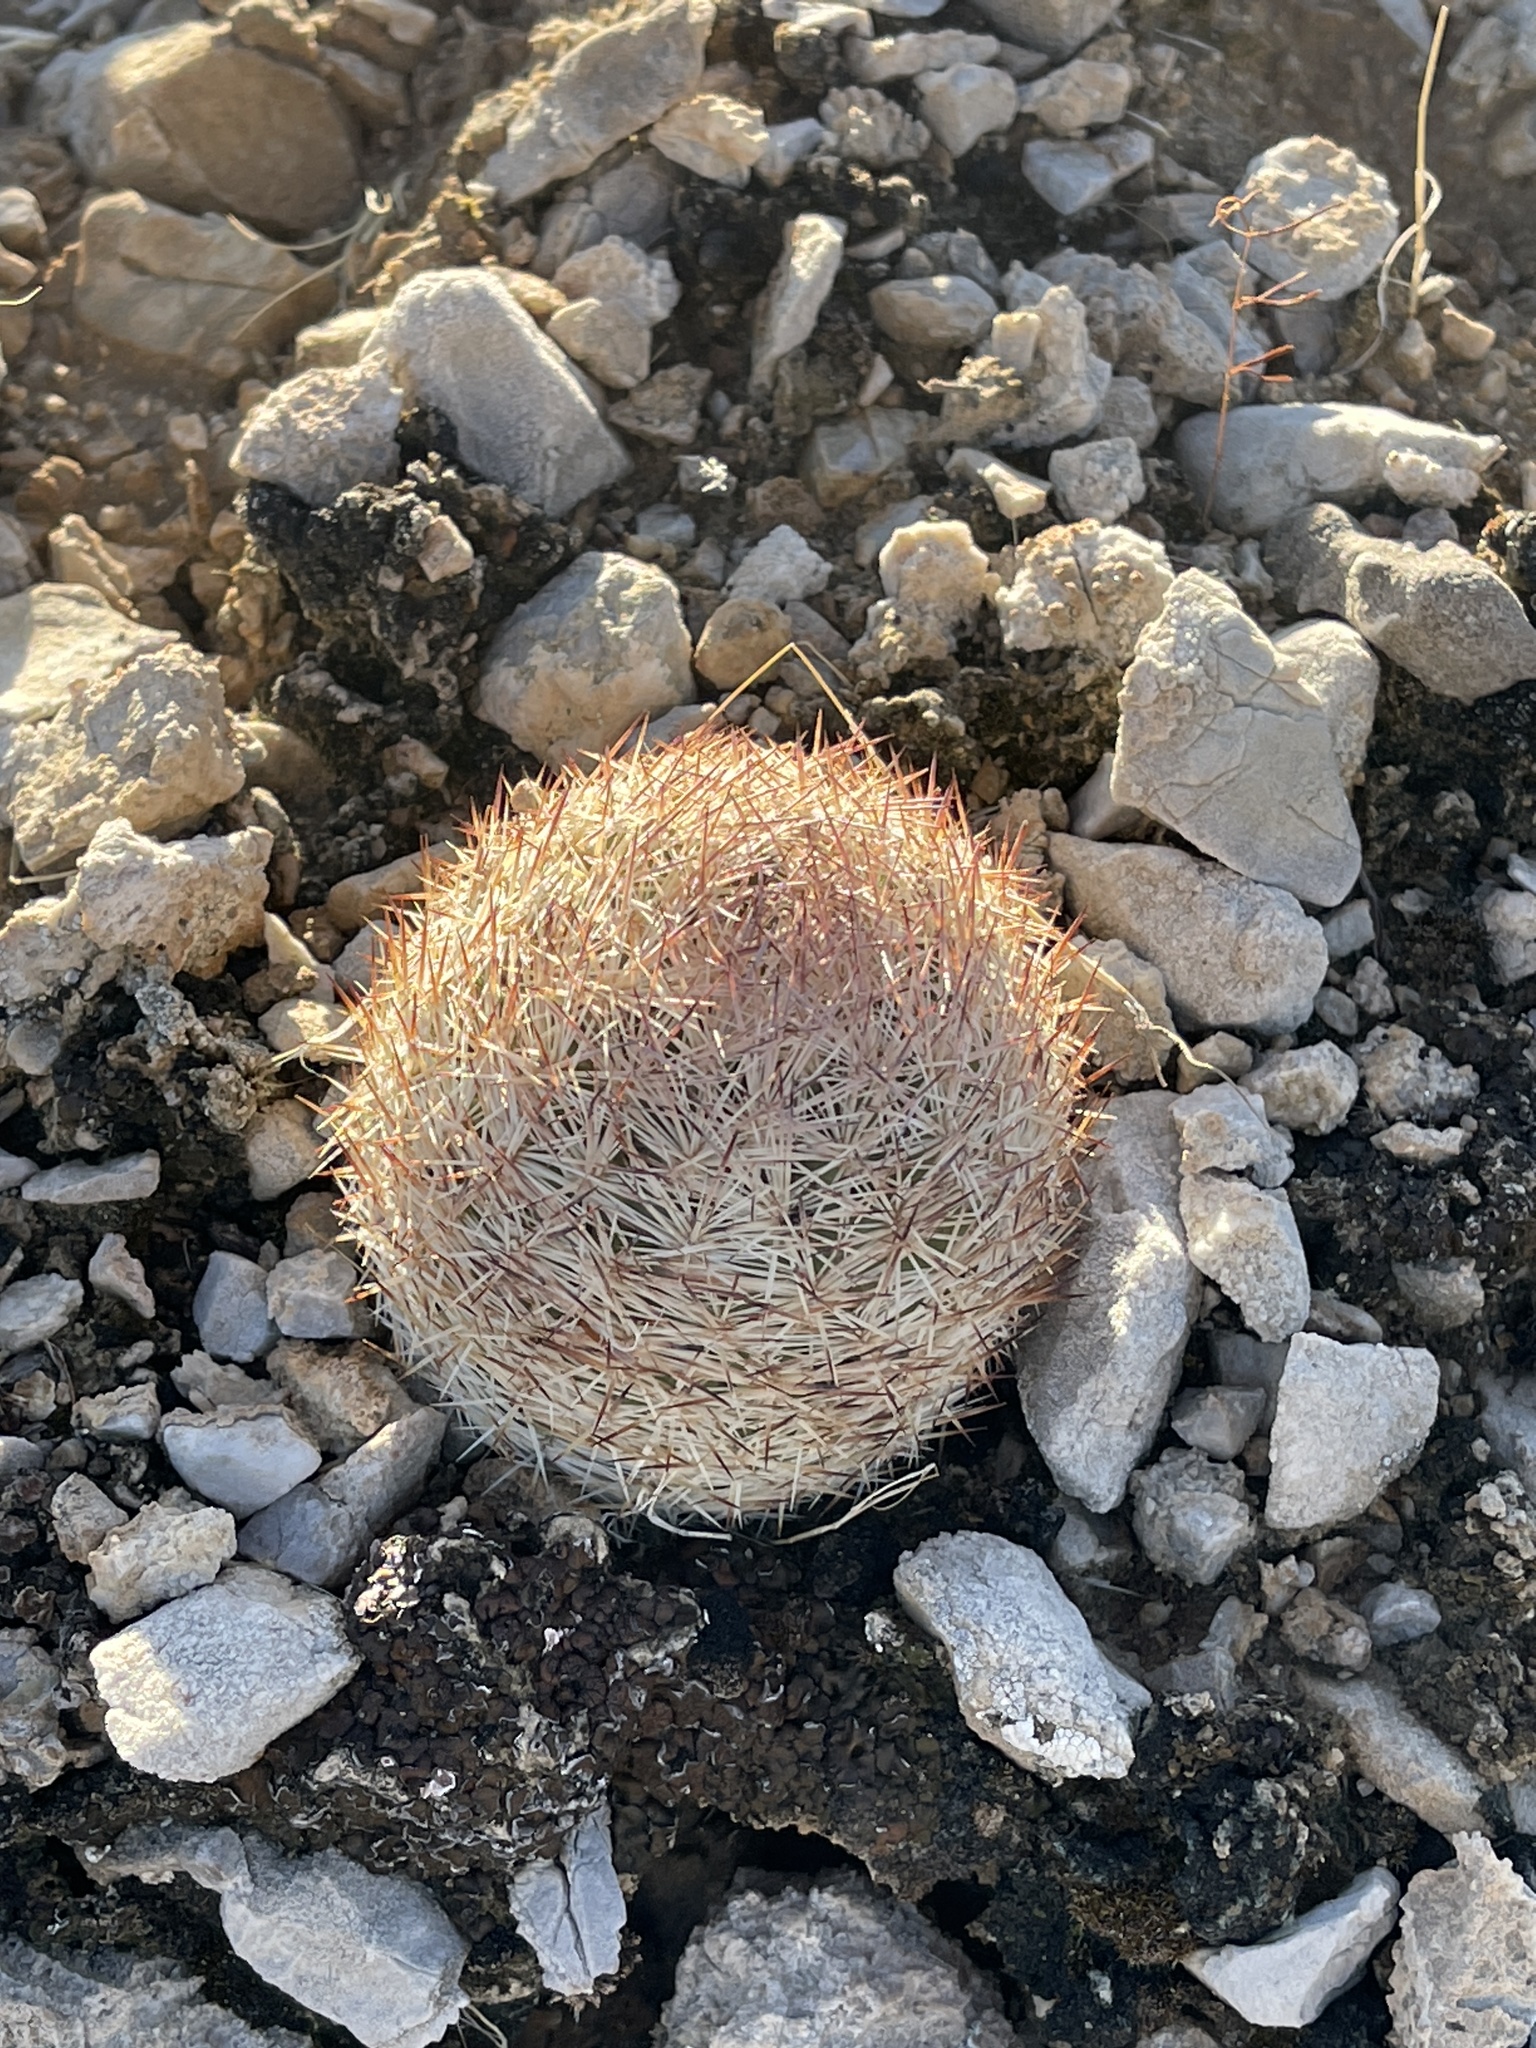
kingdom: Plantae
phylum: Tracheophyta
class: Magnoliopsida
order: Caryophyllales
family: Cactaceae
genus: Pelecyphora
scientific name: Pelecyphora dasyacantha
